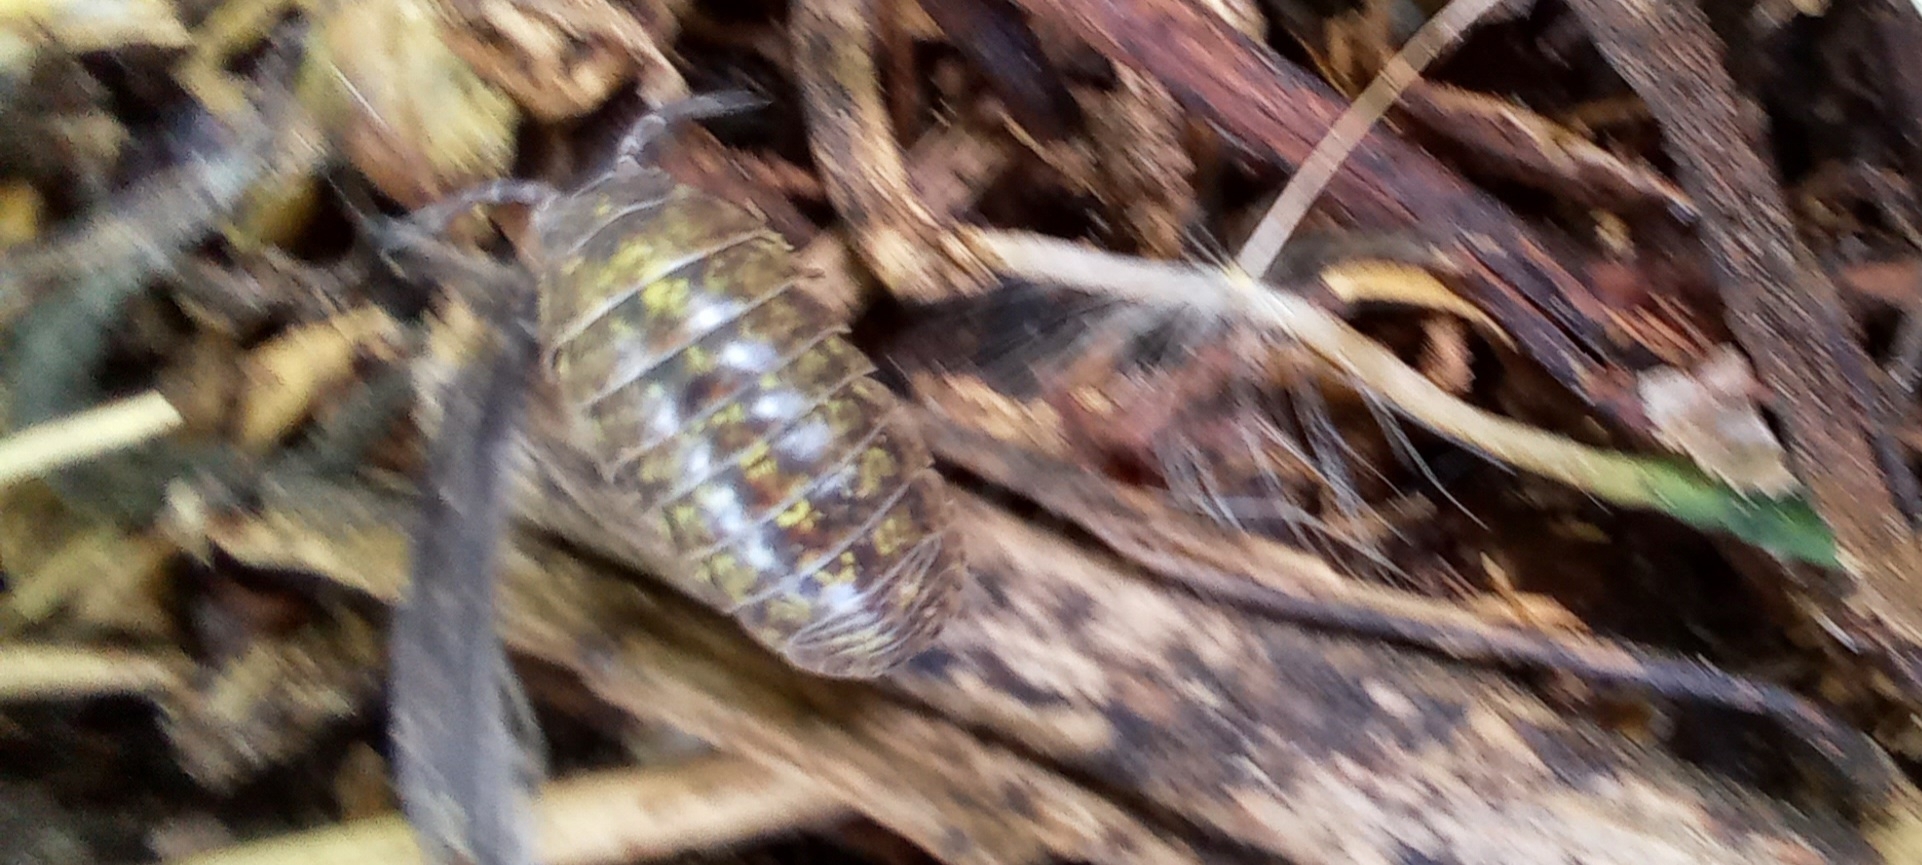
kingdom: Animalia
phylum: Arthropoda
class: Malacostraca
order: Isopoda
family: Armadillidiidae
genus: Armadillidium
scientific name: Armadillidium vulgare
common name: Common pill woodlouse
